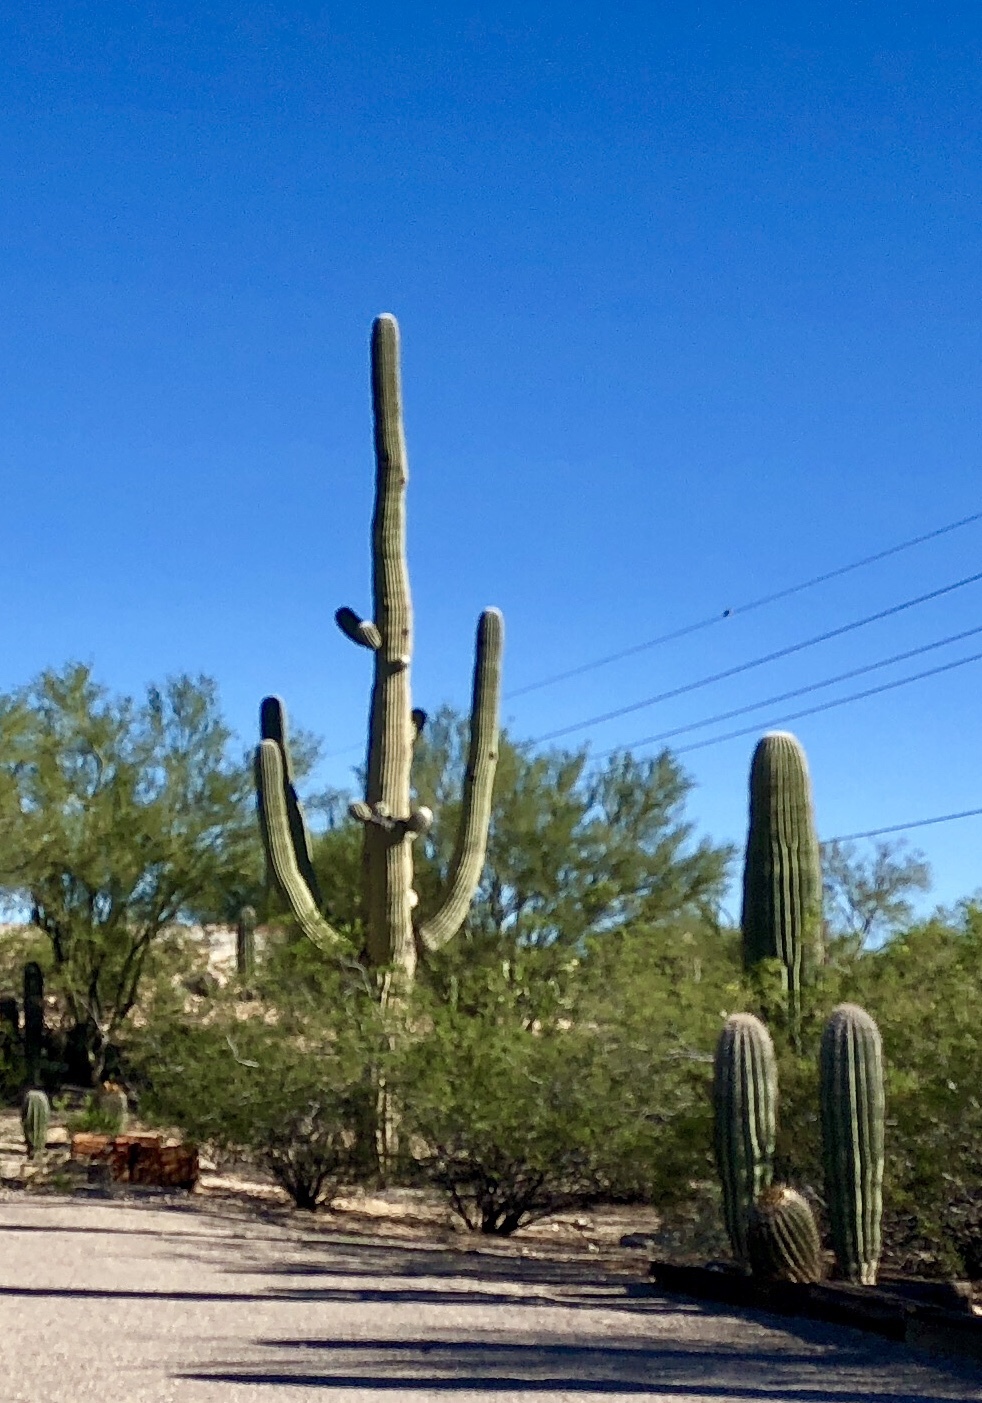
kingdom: Plantae
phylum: Tracheophyta
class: Magnoliopsida
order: Caryophyllales
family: Cactaceae
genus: Carnegiea
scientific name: Carnegiea gigantea
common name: Saguaro
